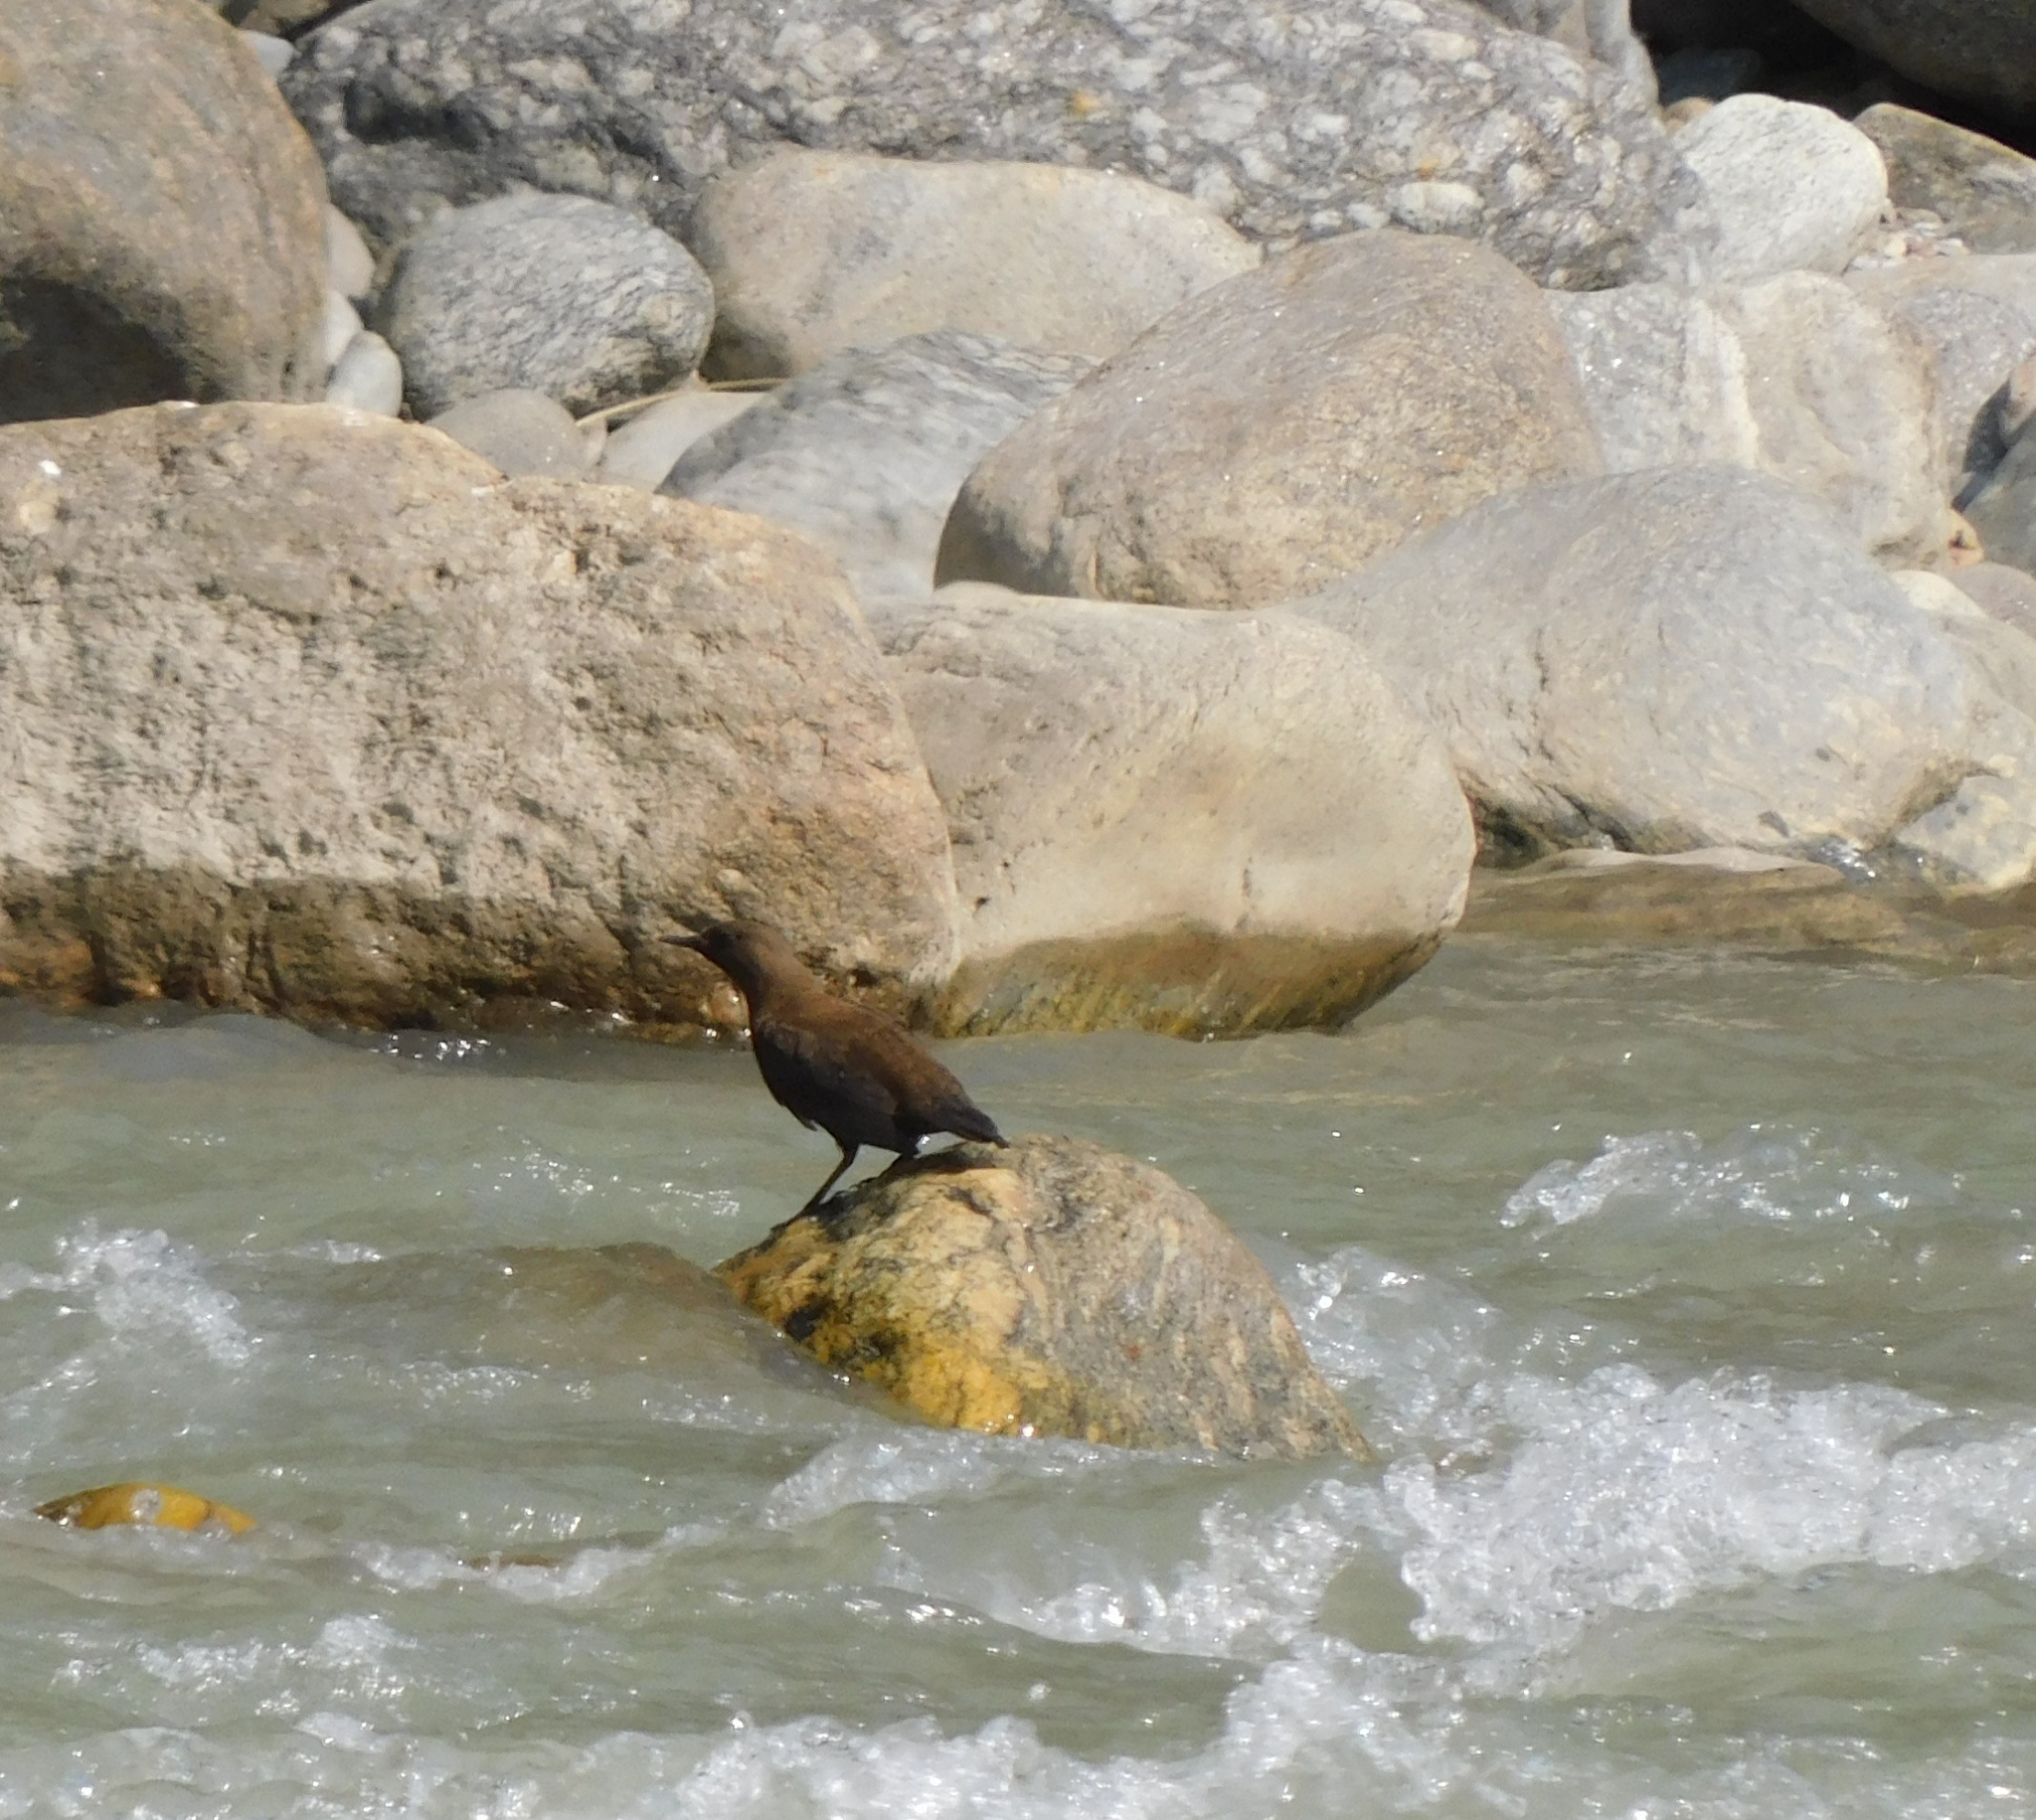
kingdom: Animalia
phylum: Chordata
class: Aves
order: Passeriformes
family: Cinclidae
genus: Cinclus
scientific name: Cinclus pallasii
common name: Brown dipper
